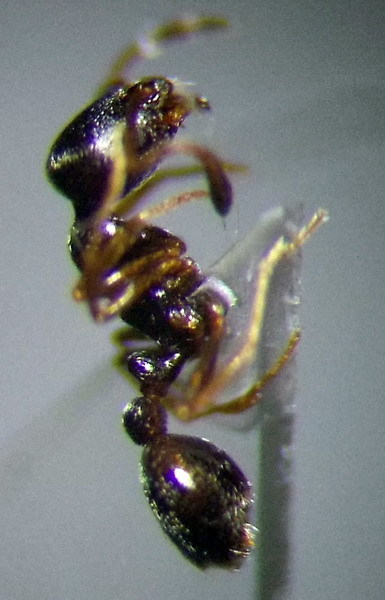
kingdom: Animalia
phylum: Arthropoda
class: Insecta
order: Hymenoptera
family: Formicidae
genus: Cardiocondyla
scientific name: Cardiocondyla stambuloffii
